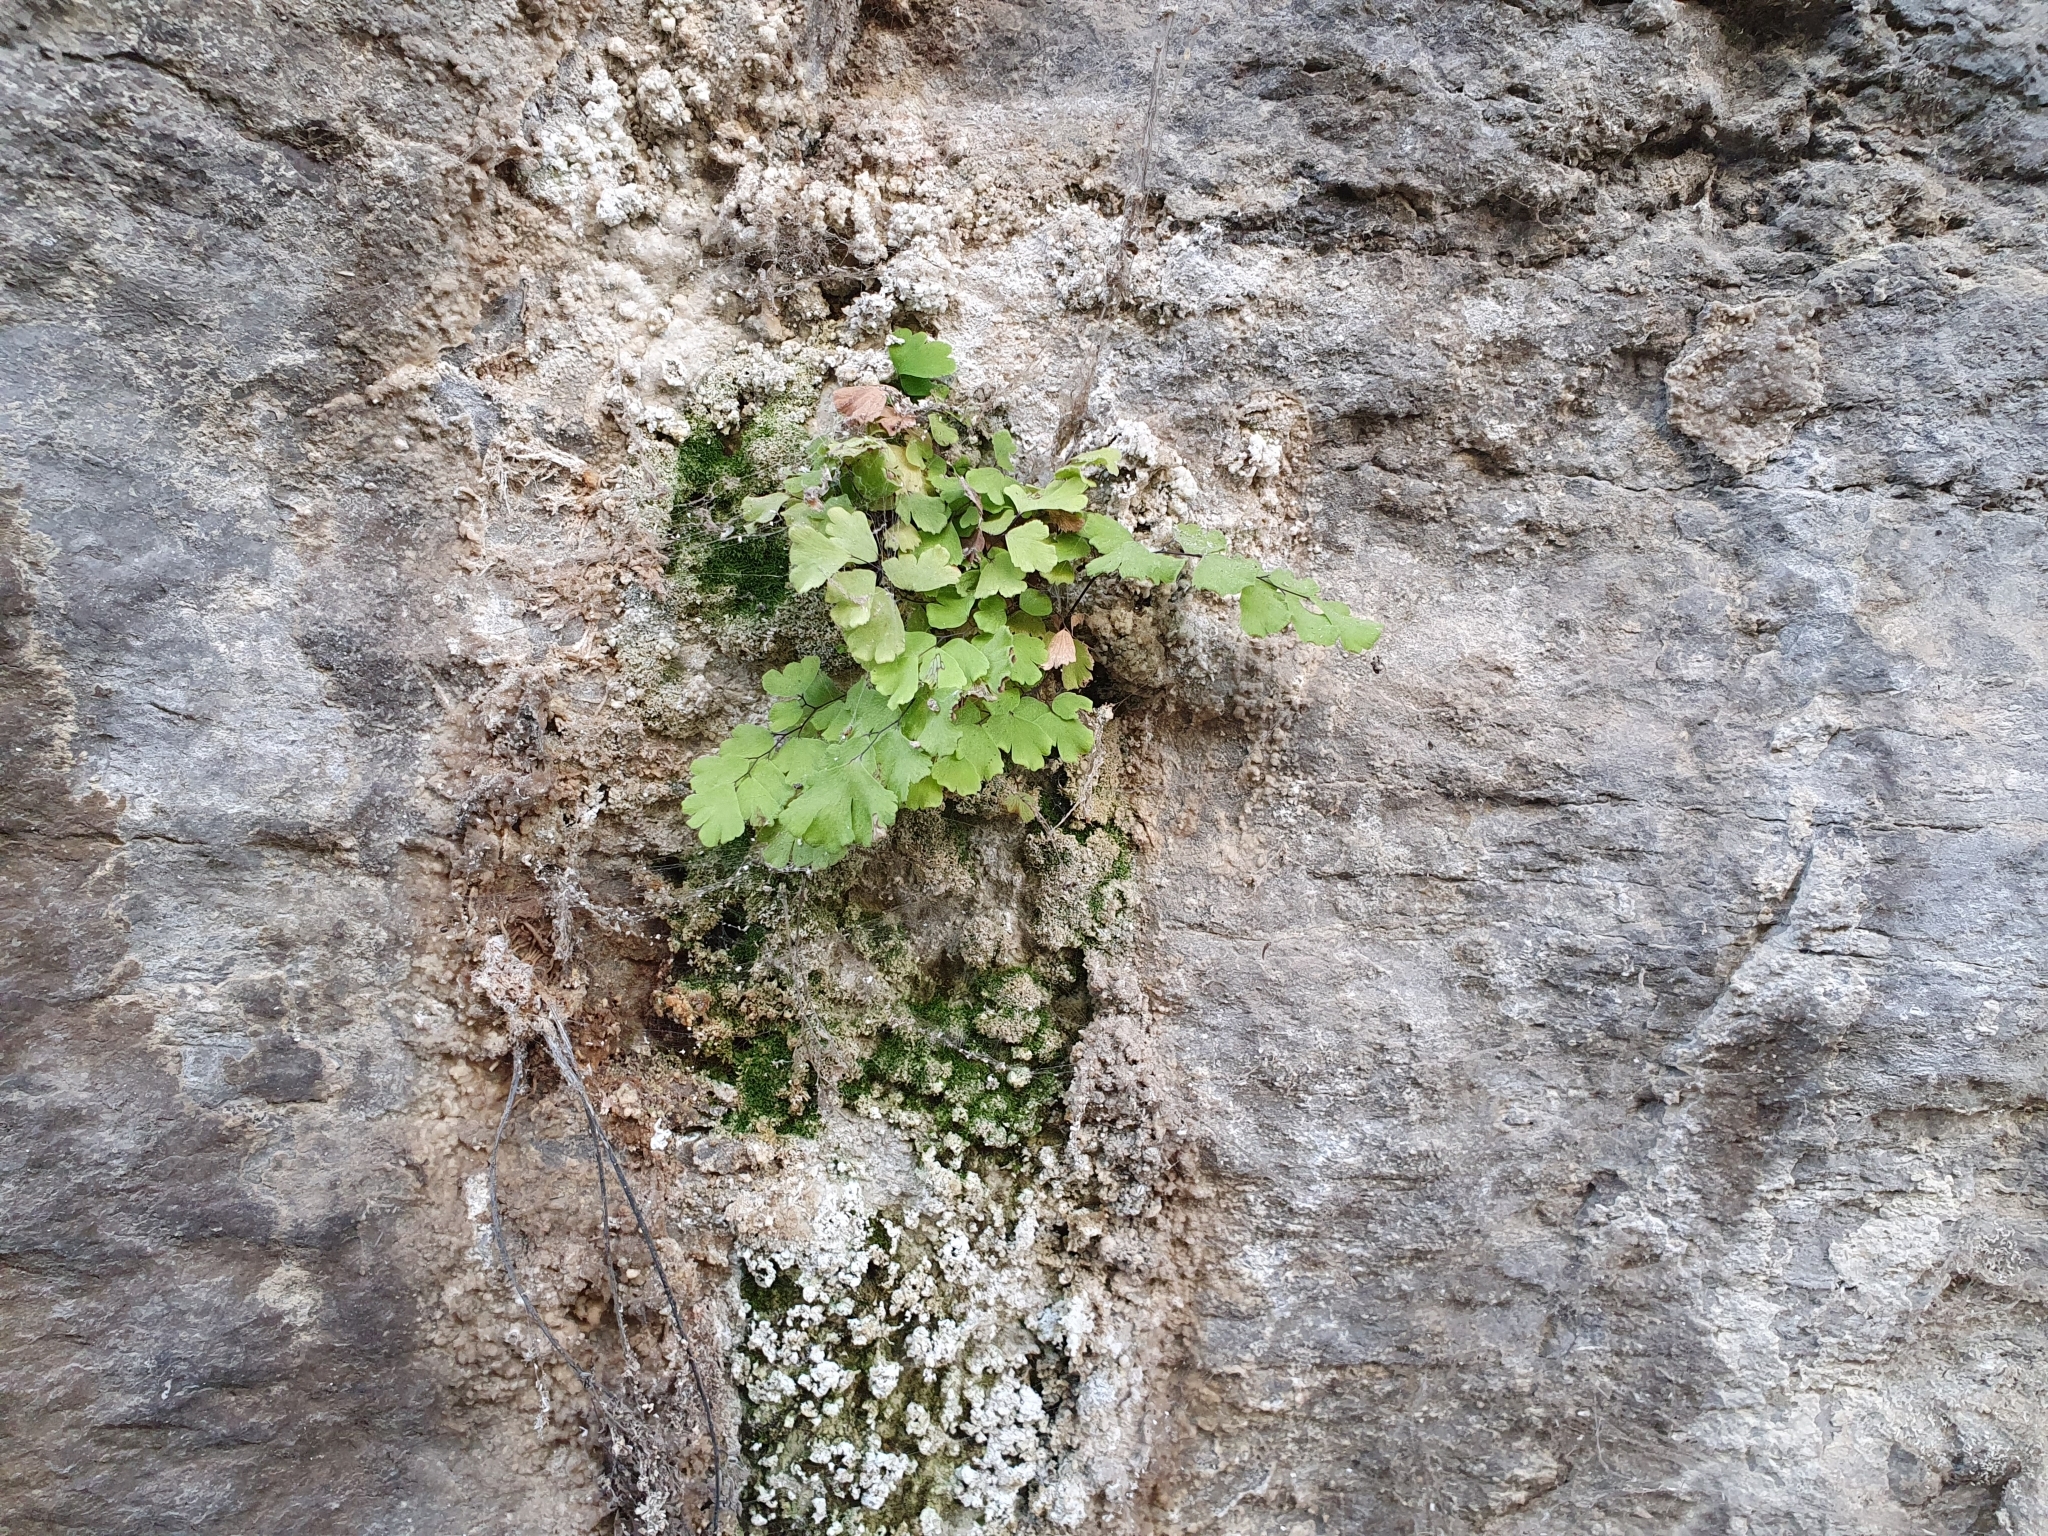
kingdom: Plantae
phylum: Tracheophyta
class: Polypodiopsida
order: Polypodiales
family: Pteridaceae
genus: Adiantum
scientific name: Adiantum capillus-veneris
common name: Maidenhair fern
